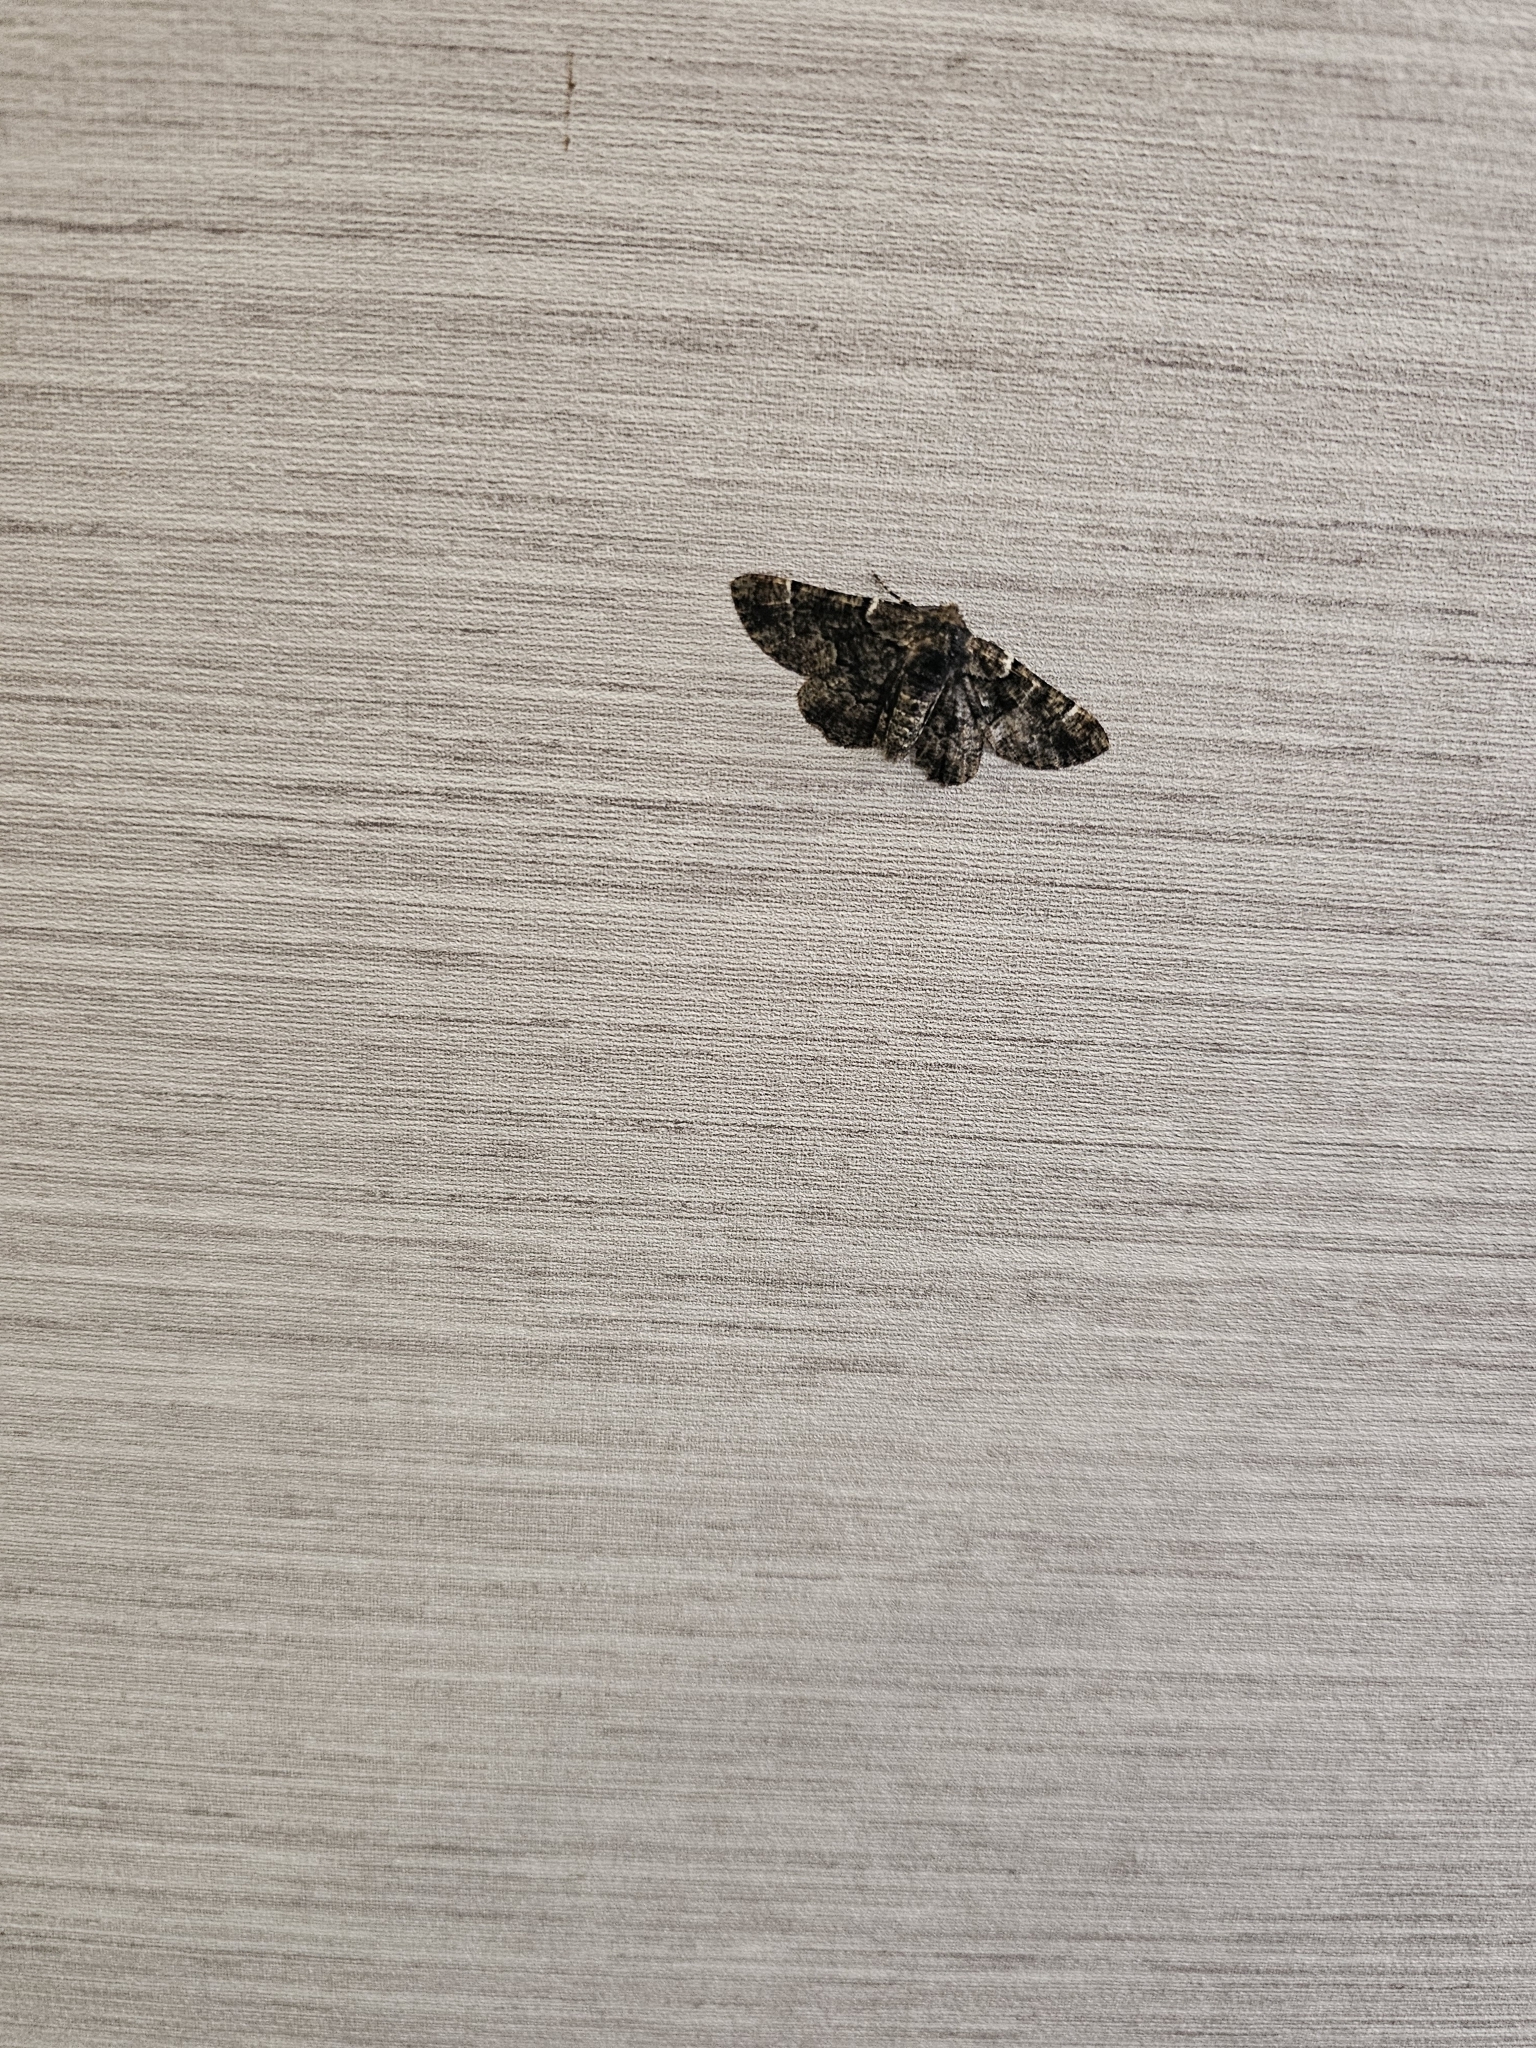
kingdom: Animalia
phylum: Arthropoda
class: Insecta
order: Lepidoptera
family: Geometridae
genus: Phaeoura
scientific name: Phaeoura quernaria
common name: Oak beauty
